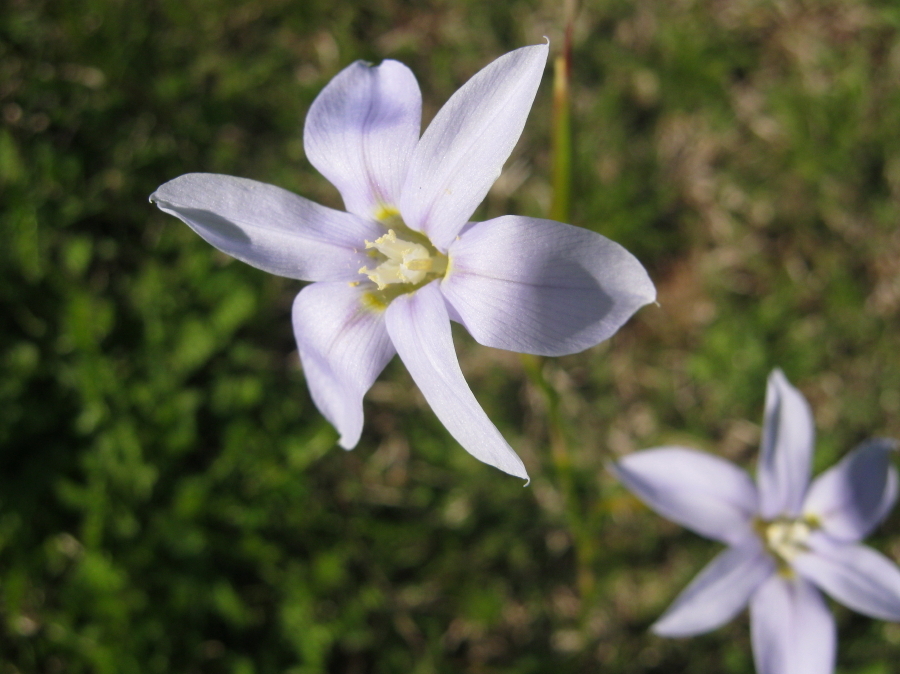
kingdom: Plantae
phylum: Tracheophyta
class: Liliopsida
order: Asparagales
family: Iridaceae
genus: Moraea
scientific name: Moraea polyanthos
